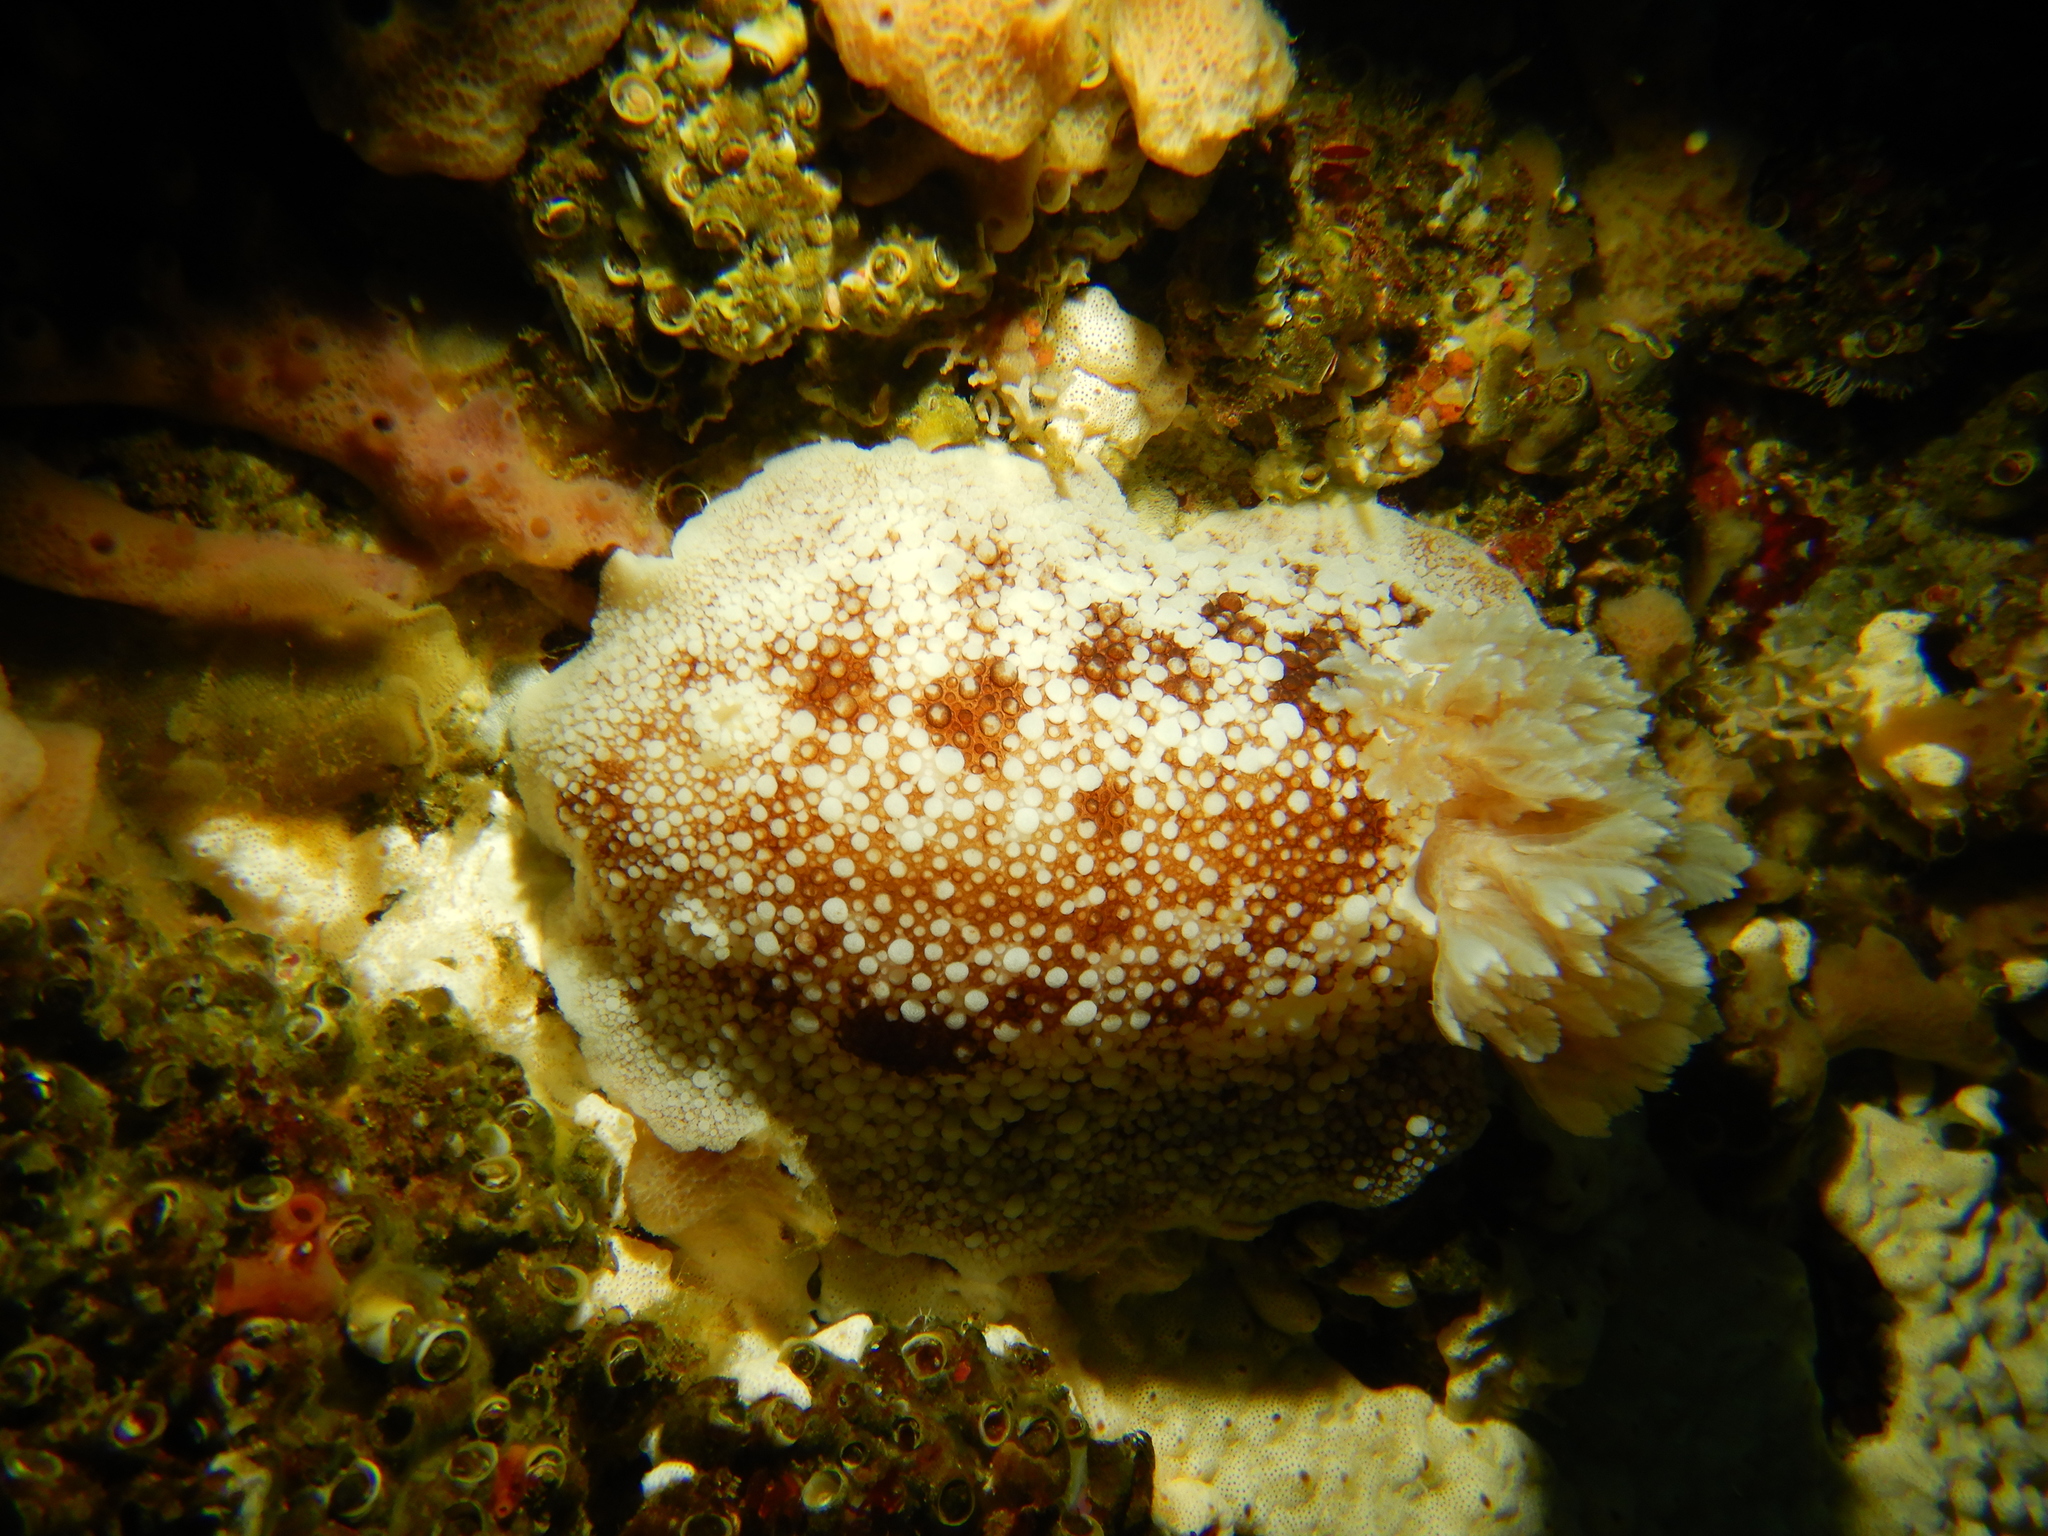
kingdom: Animalia
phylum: Mollusca
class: Gastropoda
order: Nudibranchia
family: Discodorididae
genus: Diaulula
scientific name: Diaulula variolata
